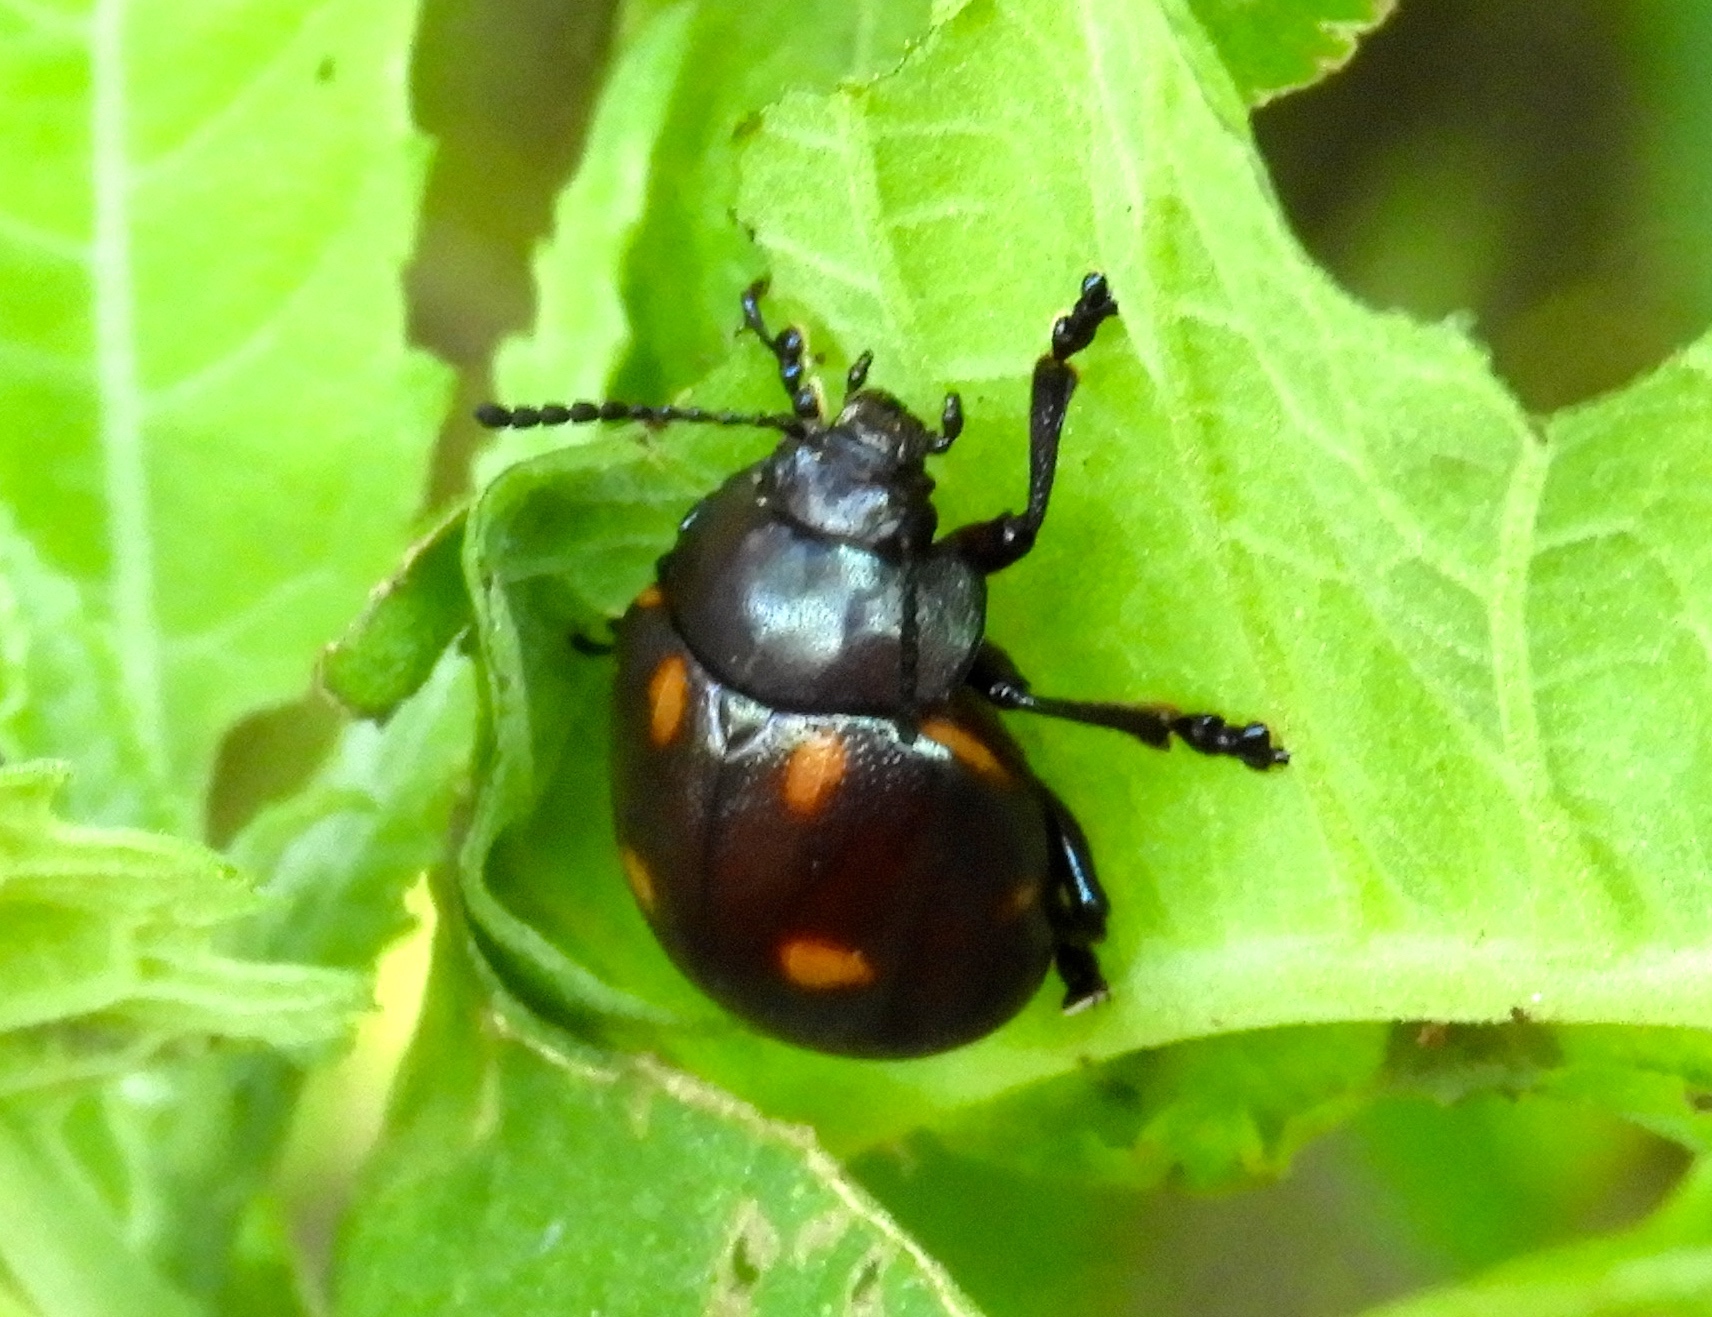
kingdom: Animalia
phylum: Arthropoda
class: Insecta
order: Coleoptera
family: Chrysomelidae
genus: Leptinotarsa
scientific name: Leptinotarsa behrensi
